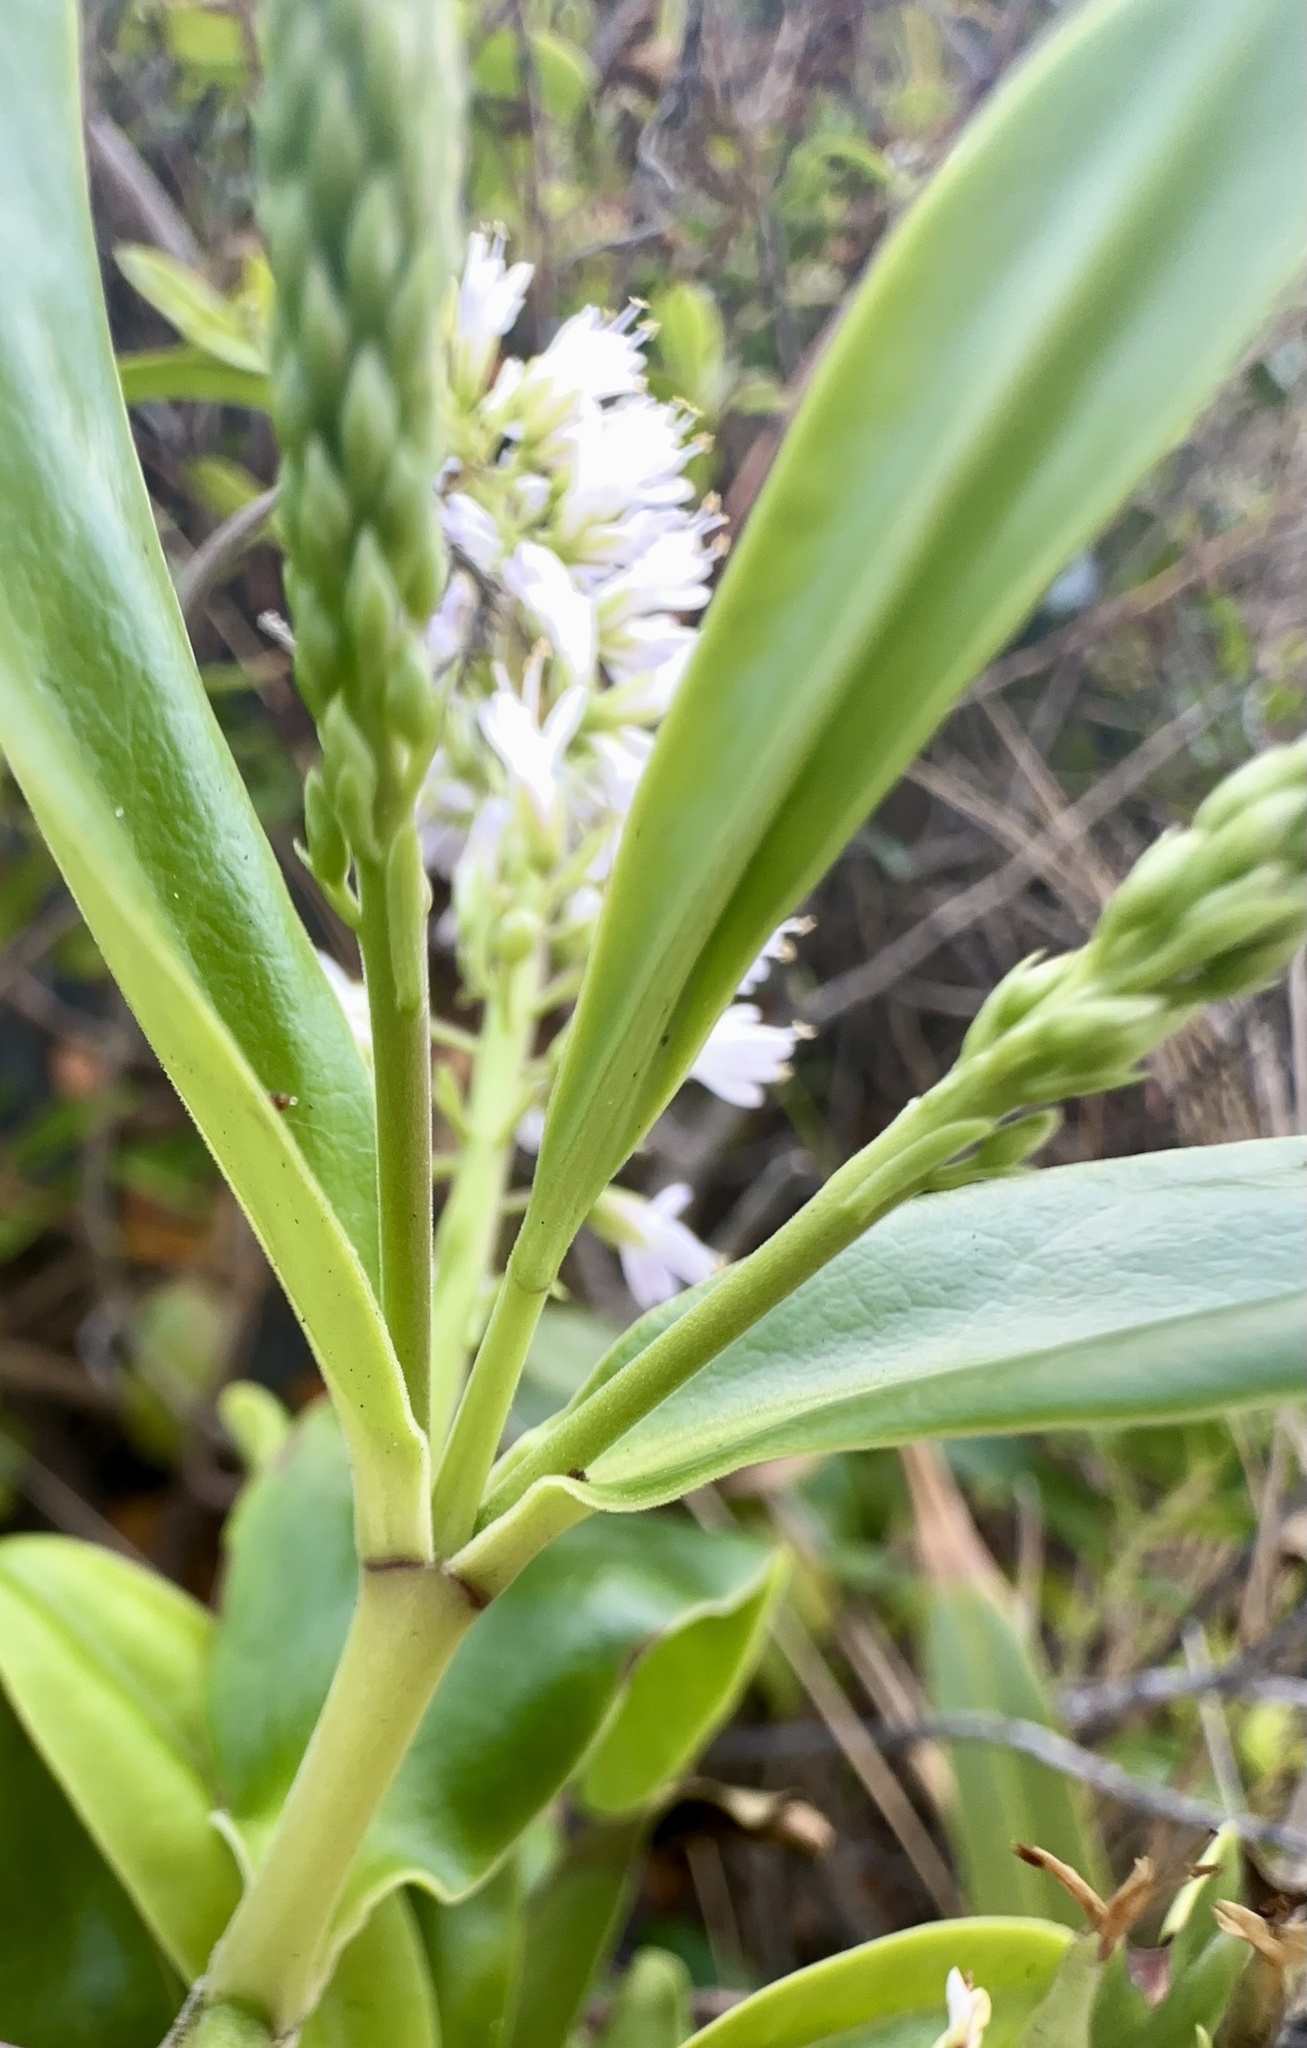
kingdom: Plantae
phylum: Tracheophyta
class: Magnoliopsida
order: Lamiales
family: Plantaginaceae
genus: Veronica
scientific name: Veronica stricta
